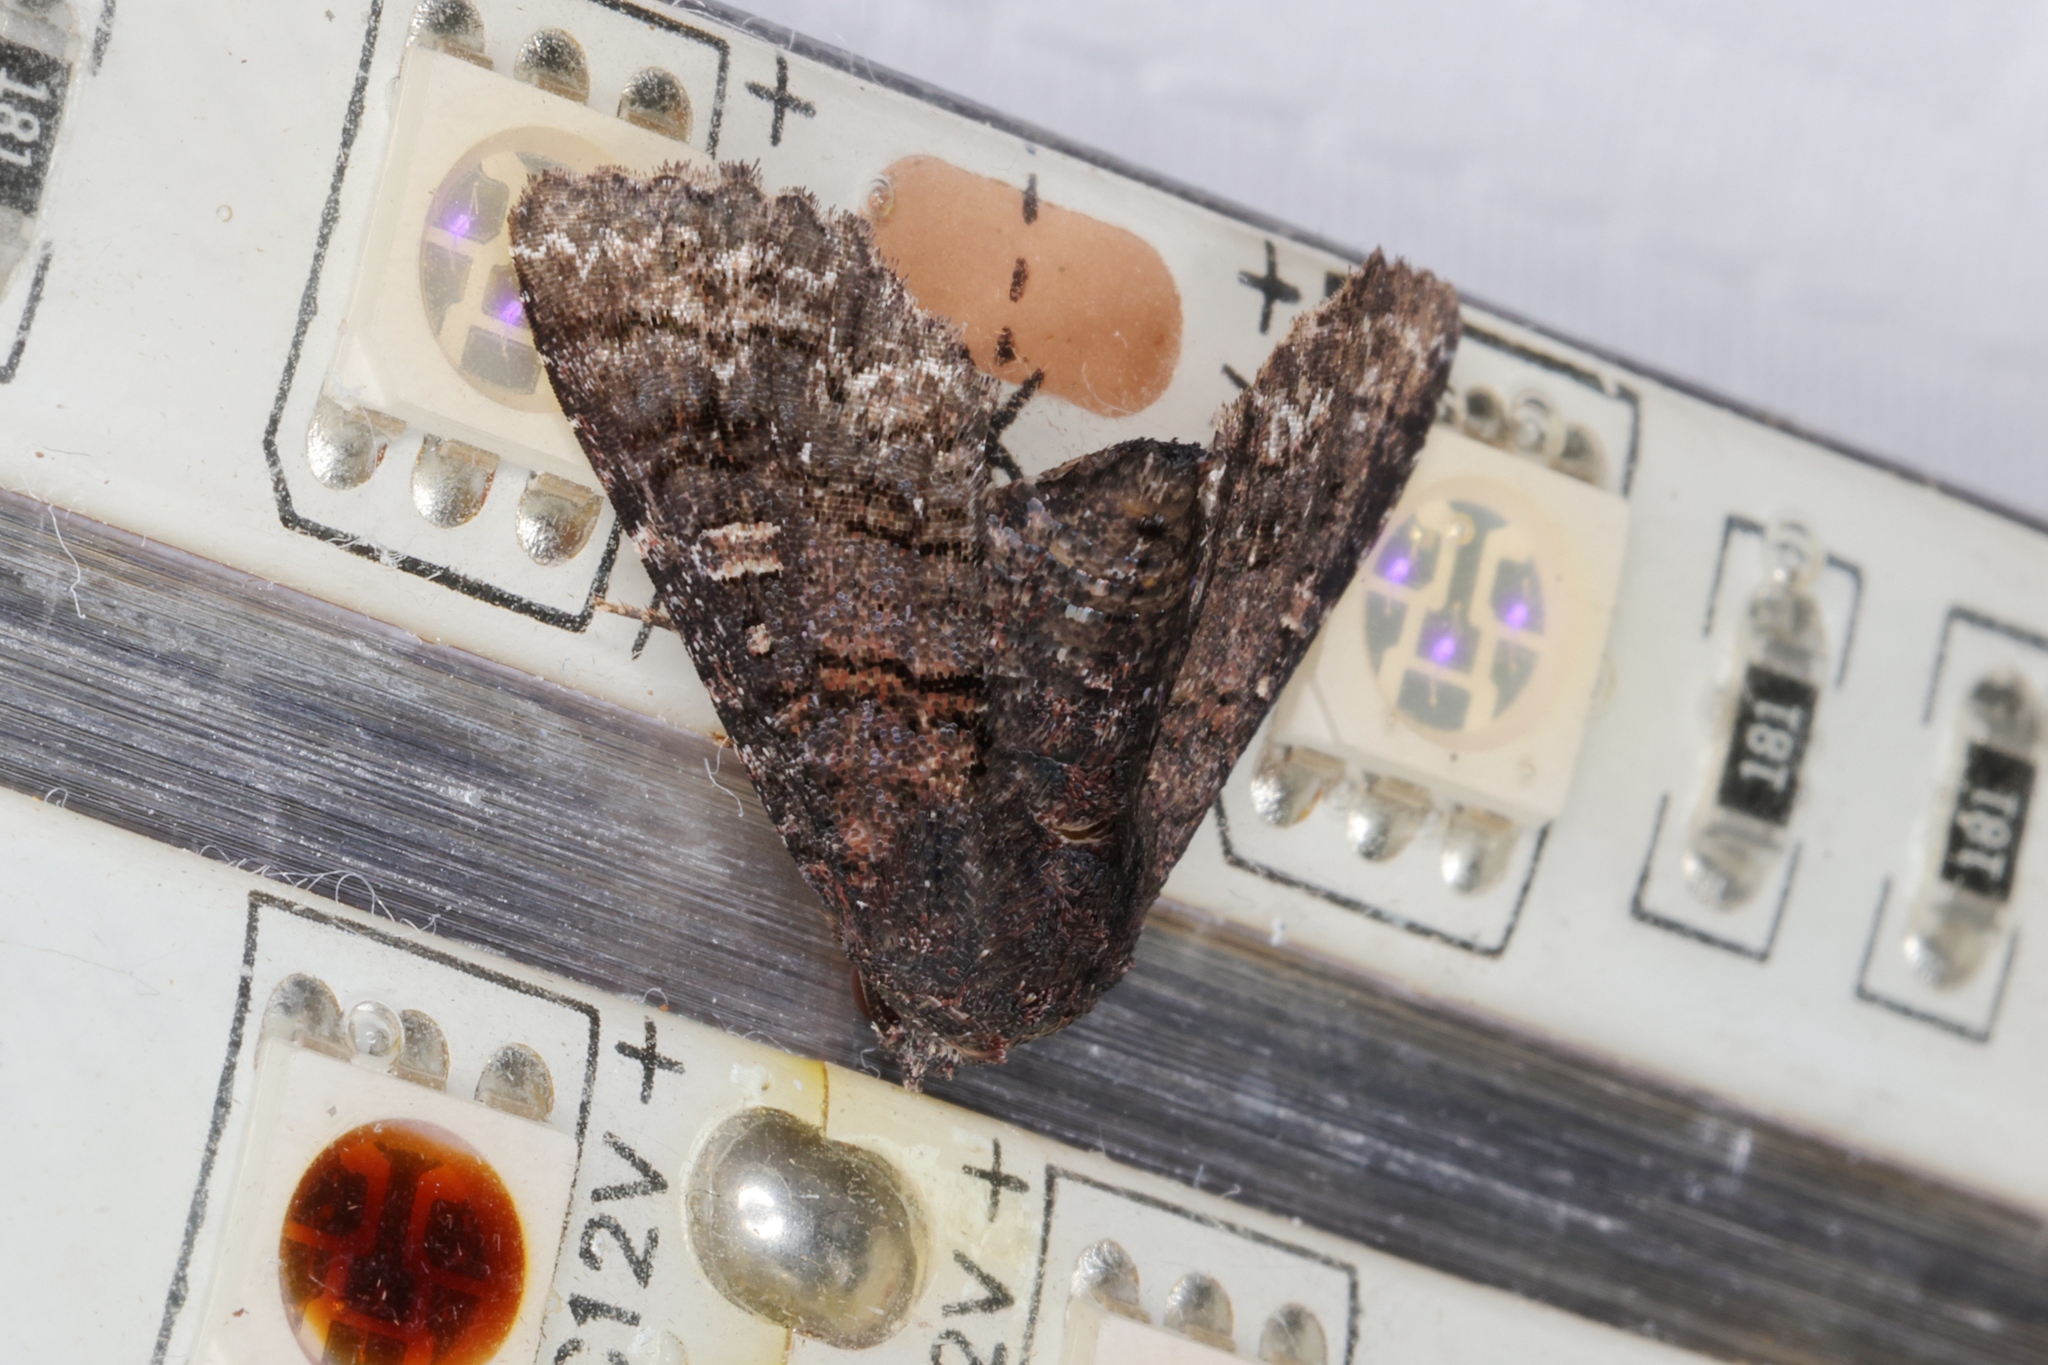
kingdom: Animalia
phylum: Arthropoda
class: Insecta
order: Lepidoptera
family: Euteliidae
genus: Pataeta
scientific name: Pataeta carbo
